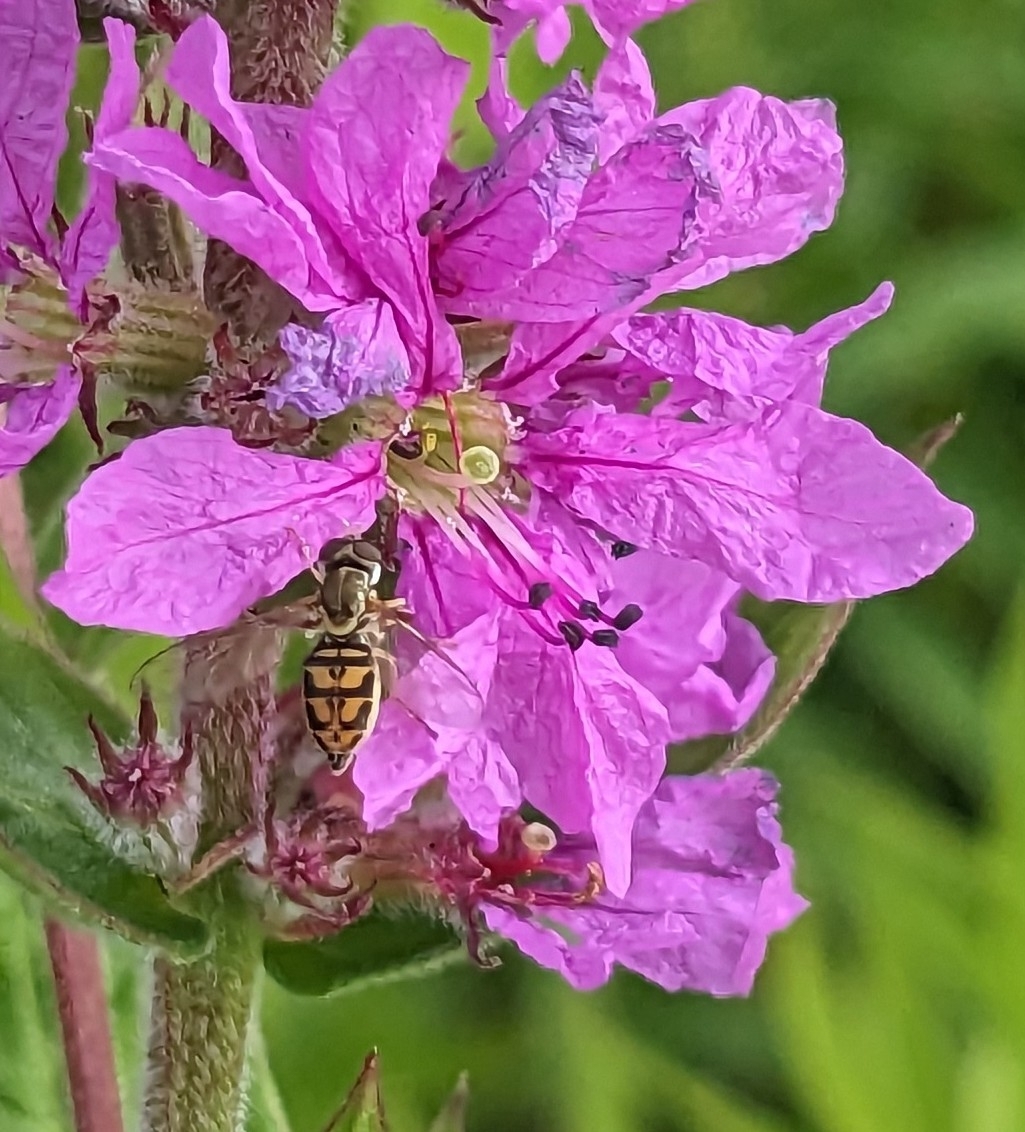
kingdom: Animalia
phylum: Arthropoda
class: Insecta
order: Diptera
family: Syrphidae
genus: Toxomerus
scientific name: Toxomerus marginatus
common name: Syrphid fly
